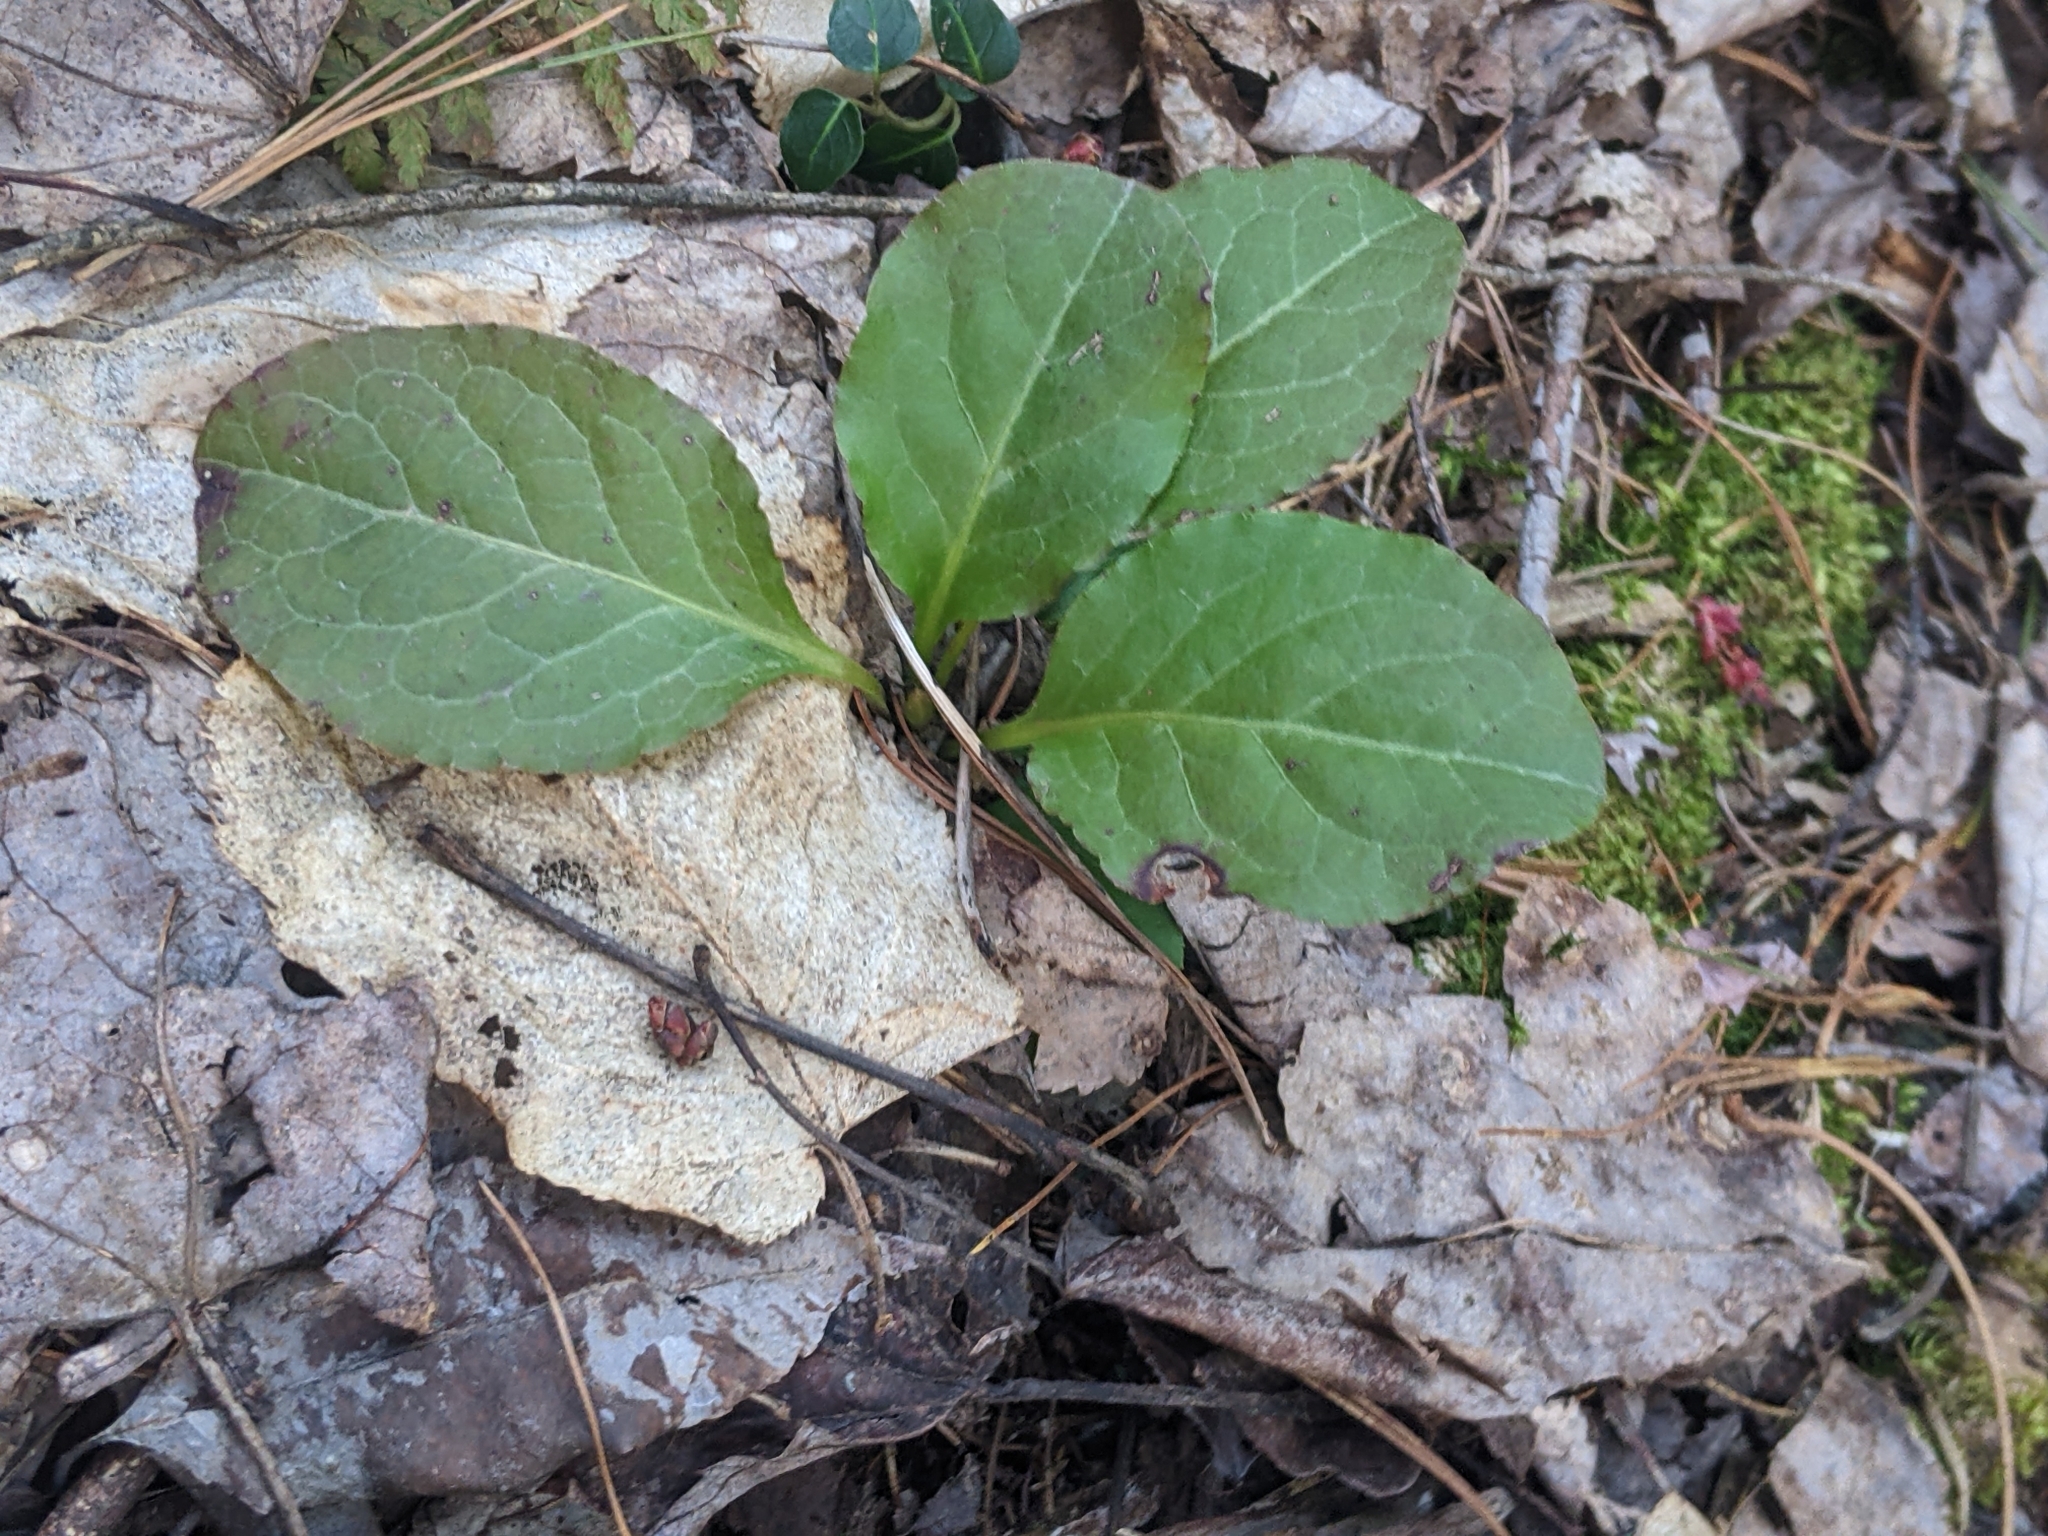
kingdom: Plantae
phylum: Tracheophyta
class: Magnoliopsida
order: Ericales
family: Ericaceae
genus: Pyrola
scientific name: Pyrola elliptica
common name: Shinleaf
